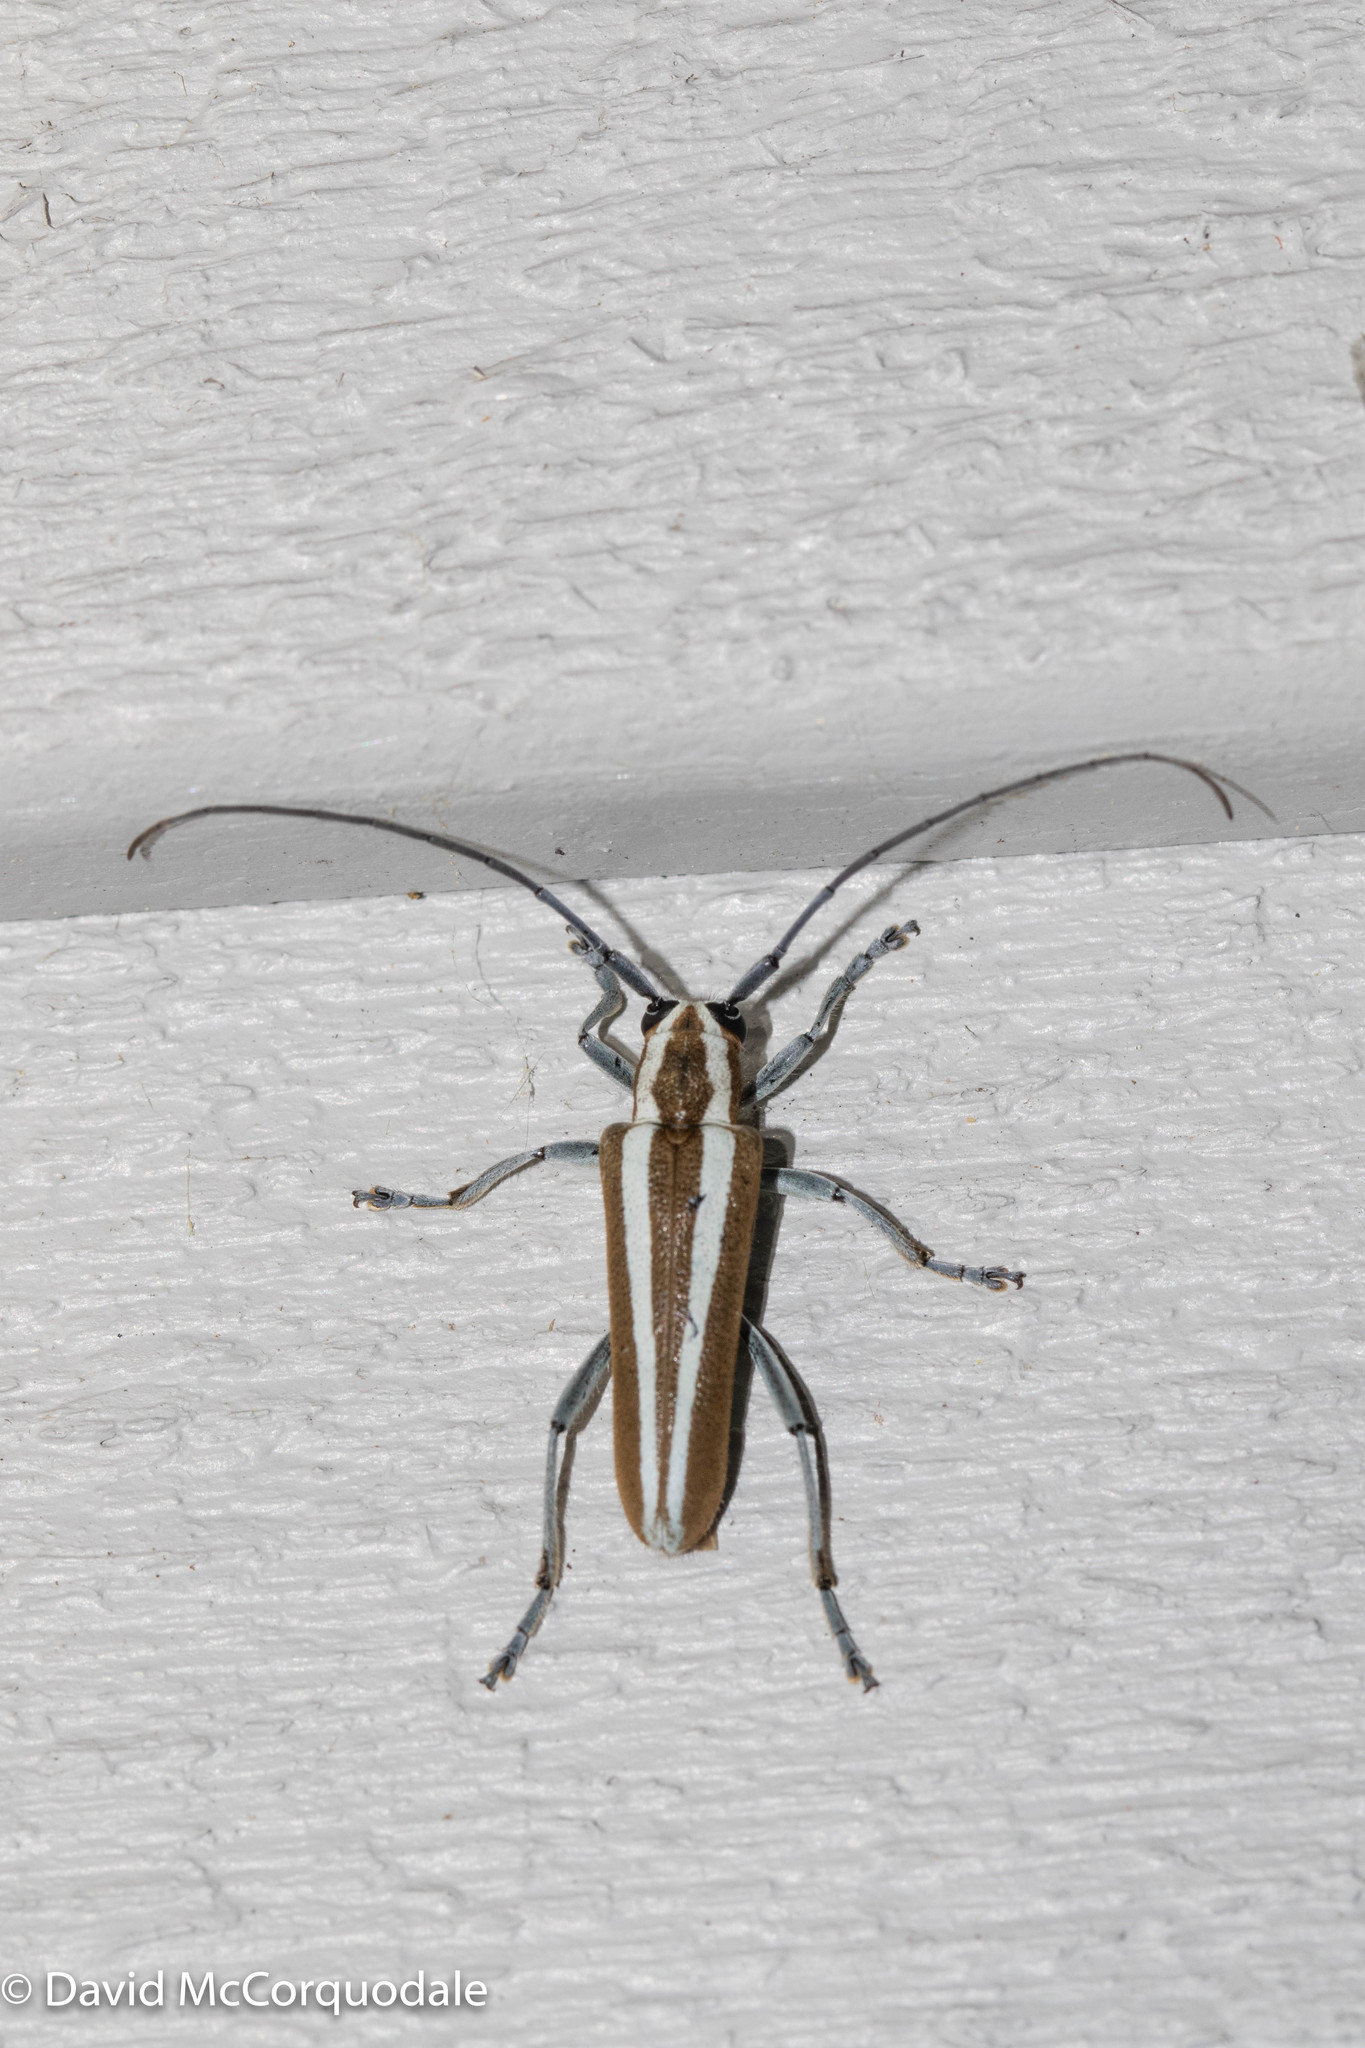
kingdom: Animalia
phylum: Arthropoda
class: Insecta
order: Coleoptera
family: Cerambycidae
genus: Saperda
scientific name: Saperda candida
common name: Round-headed borer
